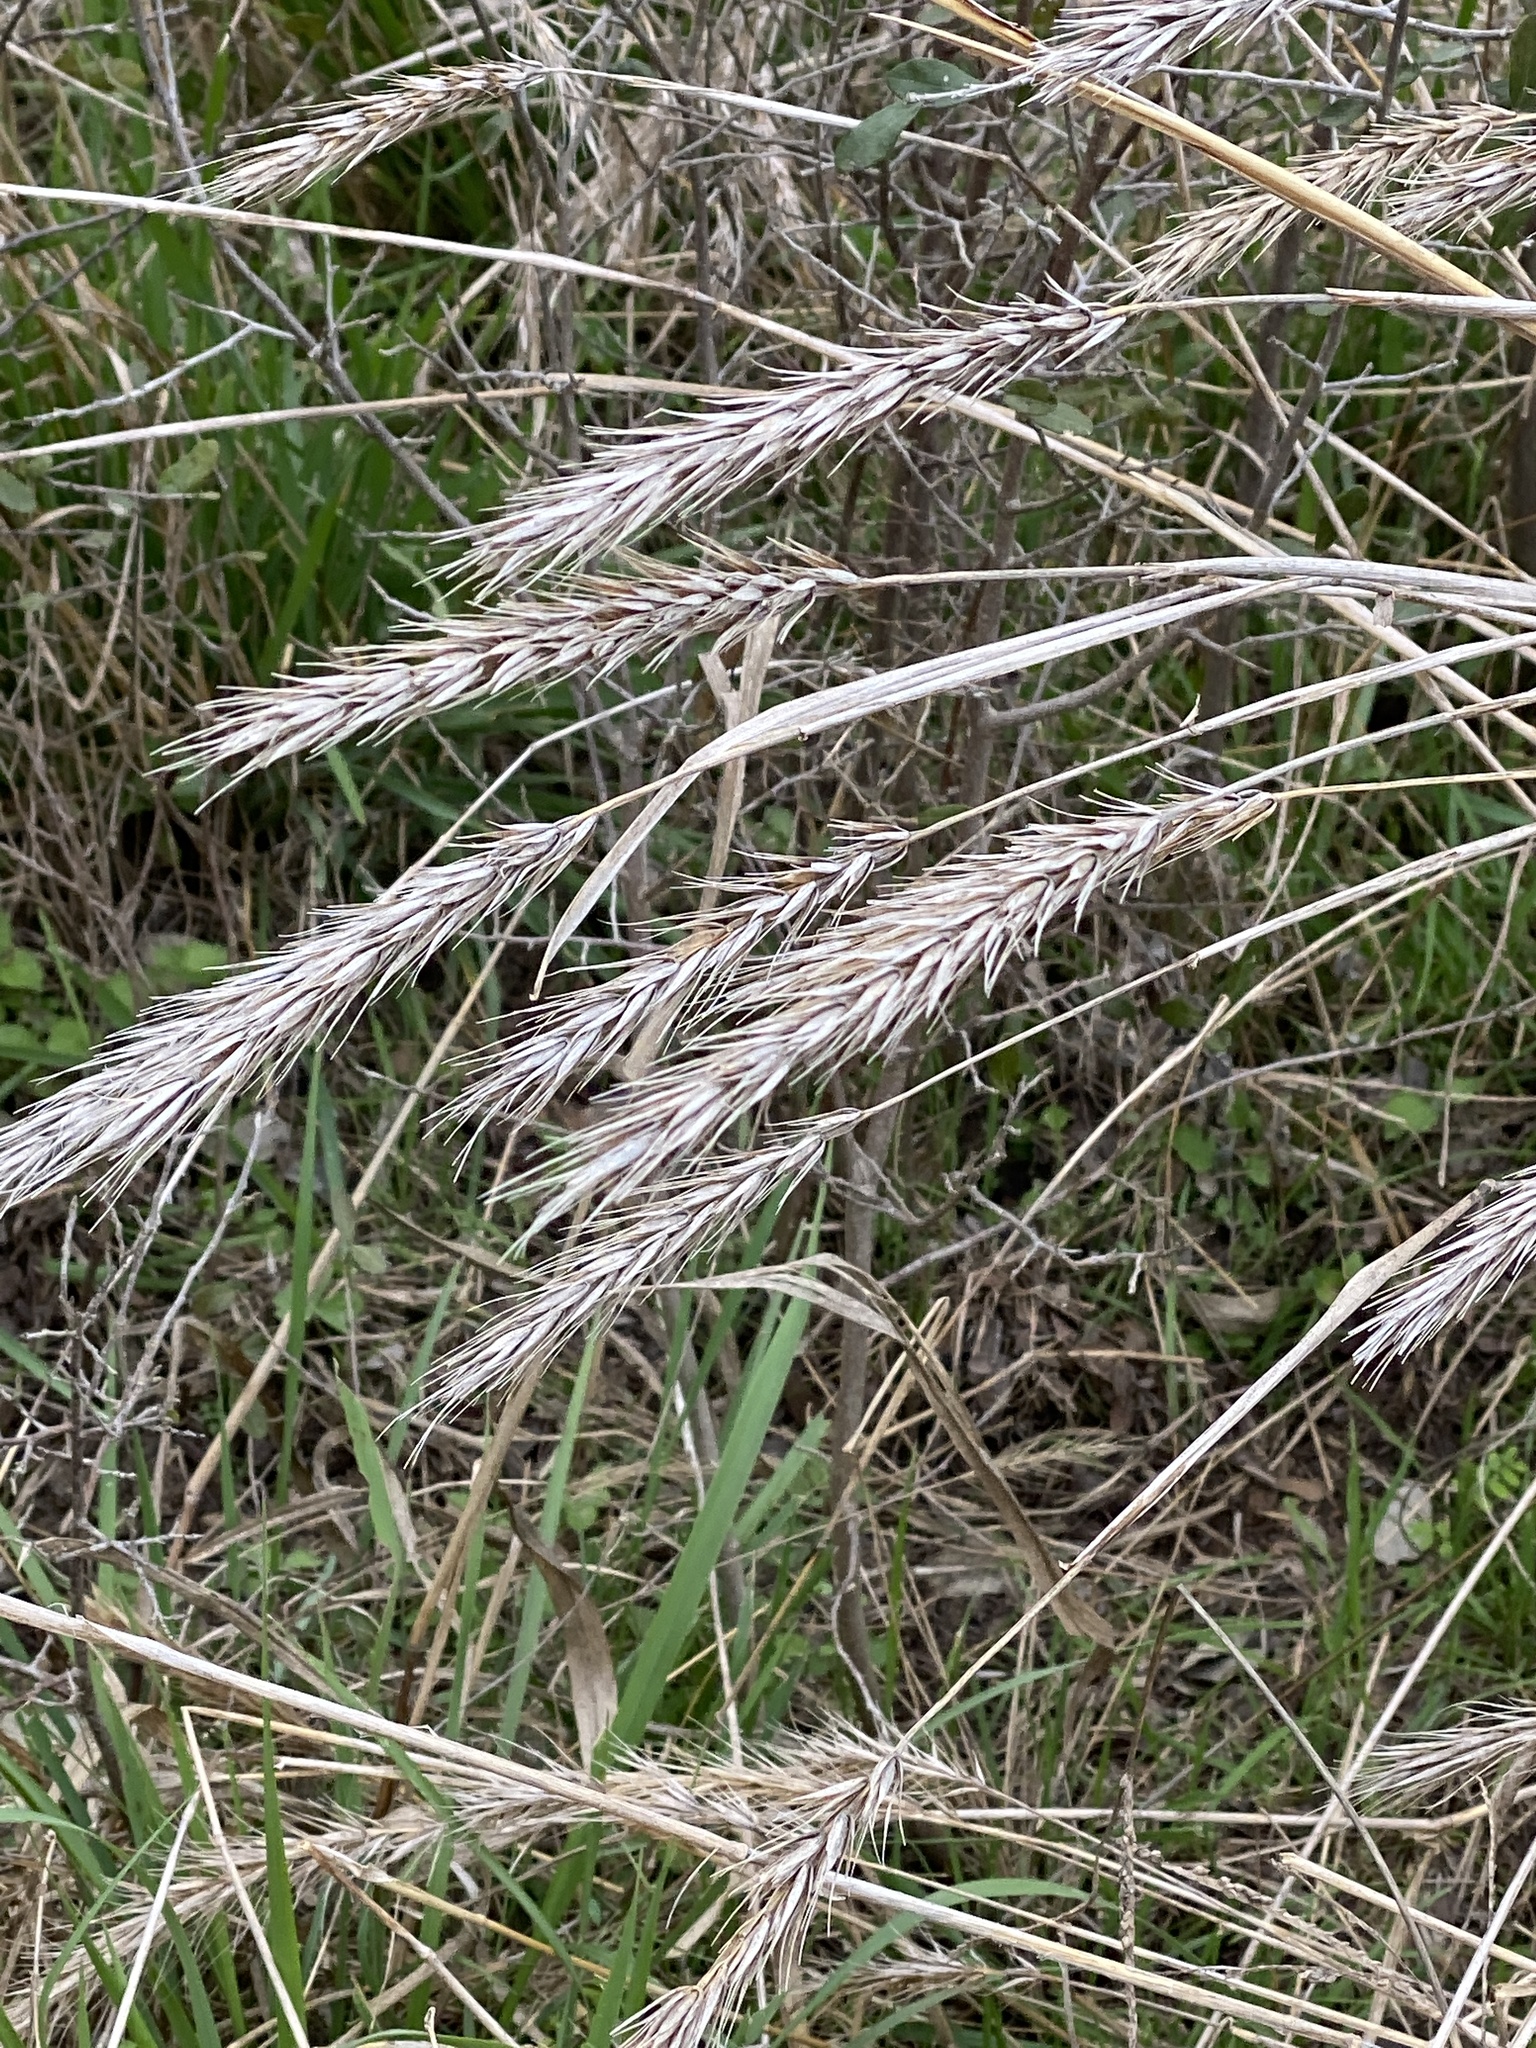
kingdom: Plantae
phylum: Tracheophyta
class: Liliopsida
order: Poales
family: Poaceae
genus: Elymus
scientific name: Elymus virginicus
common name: Common eastern wildrye
